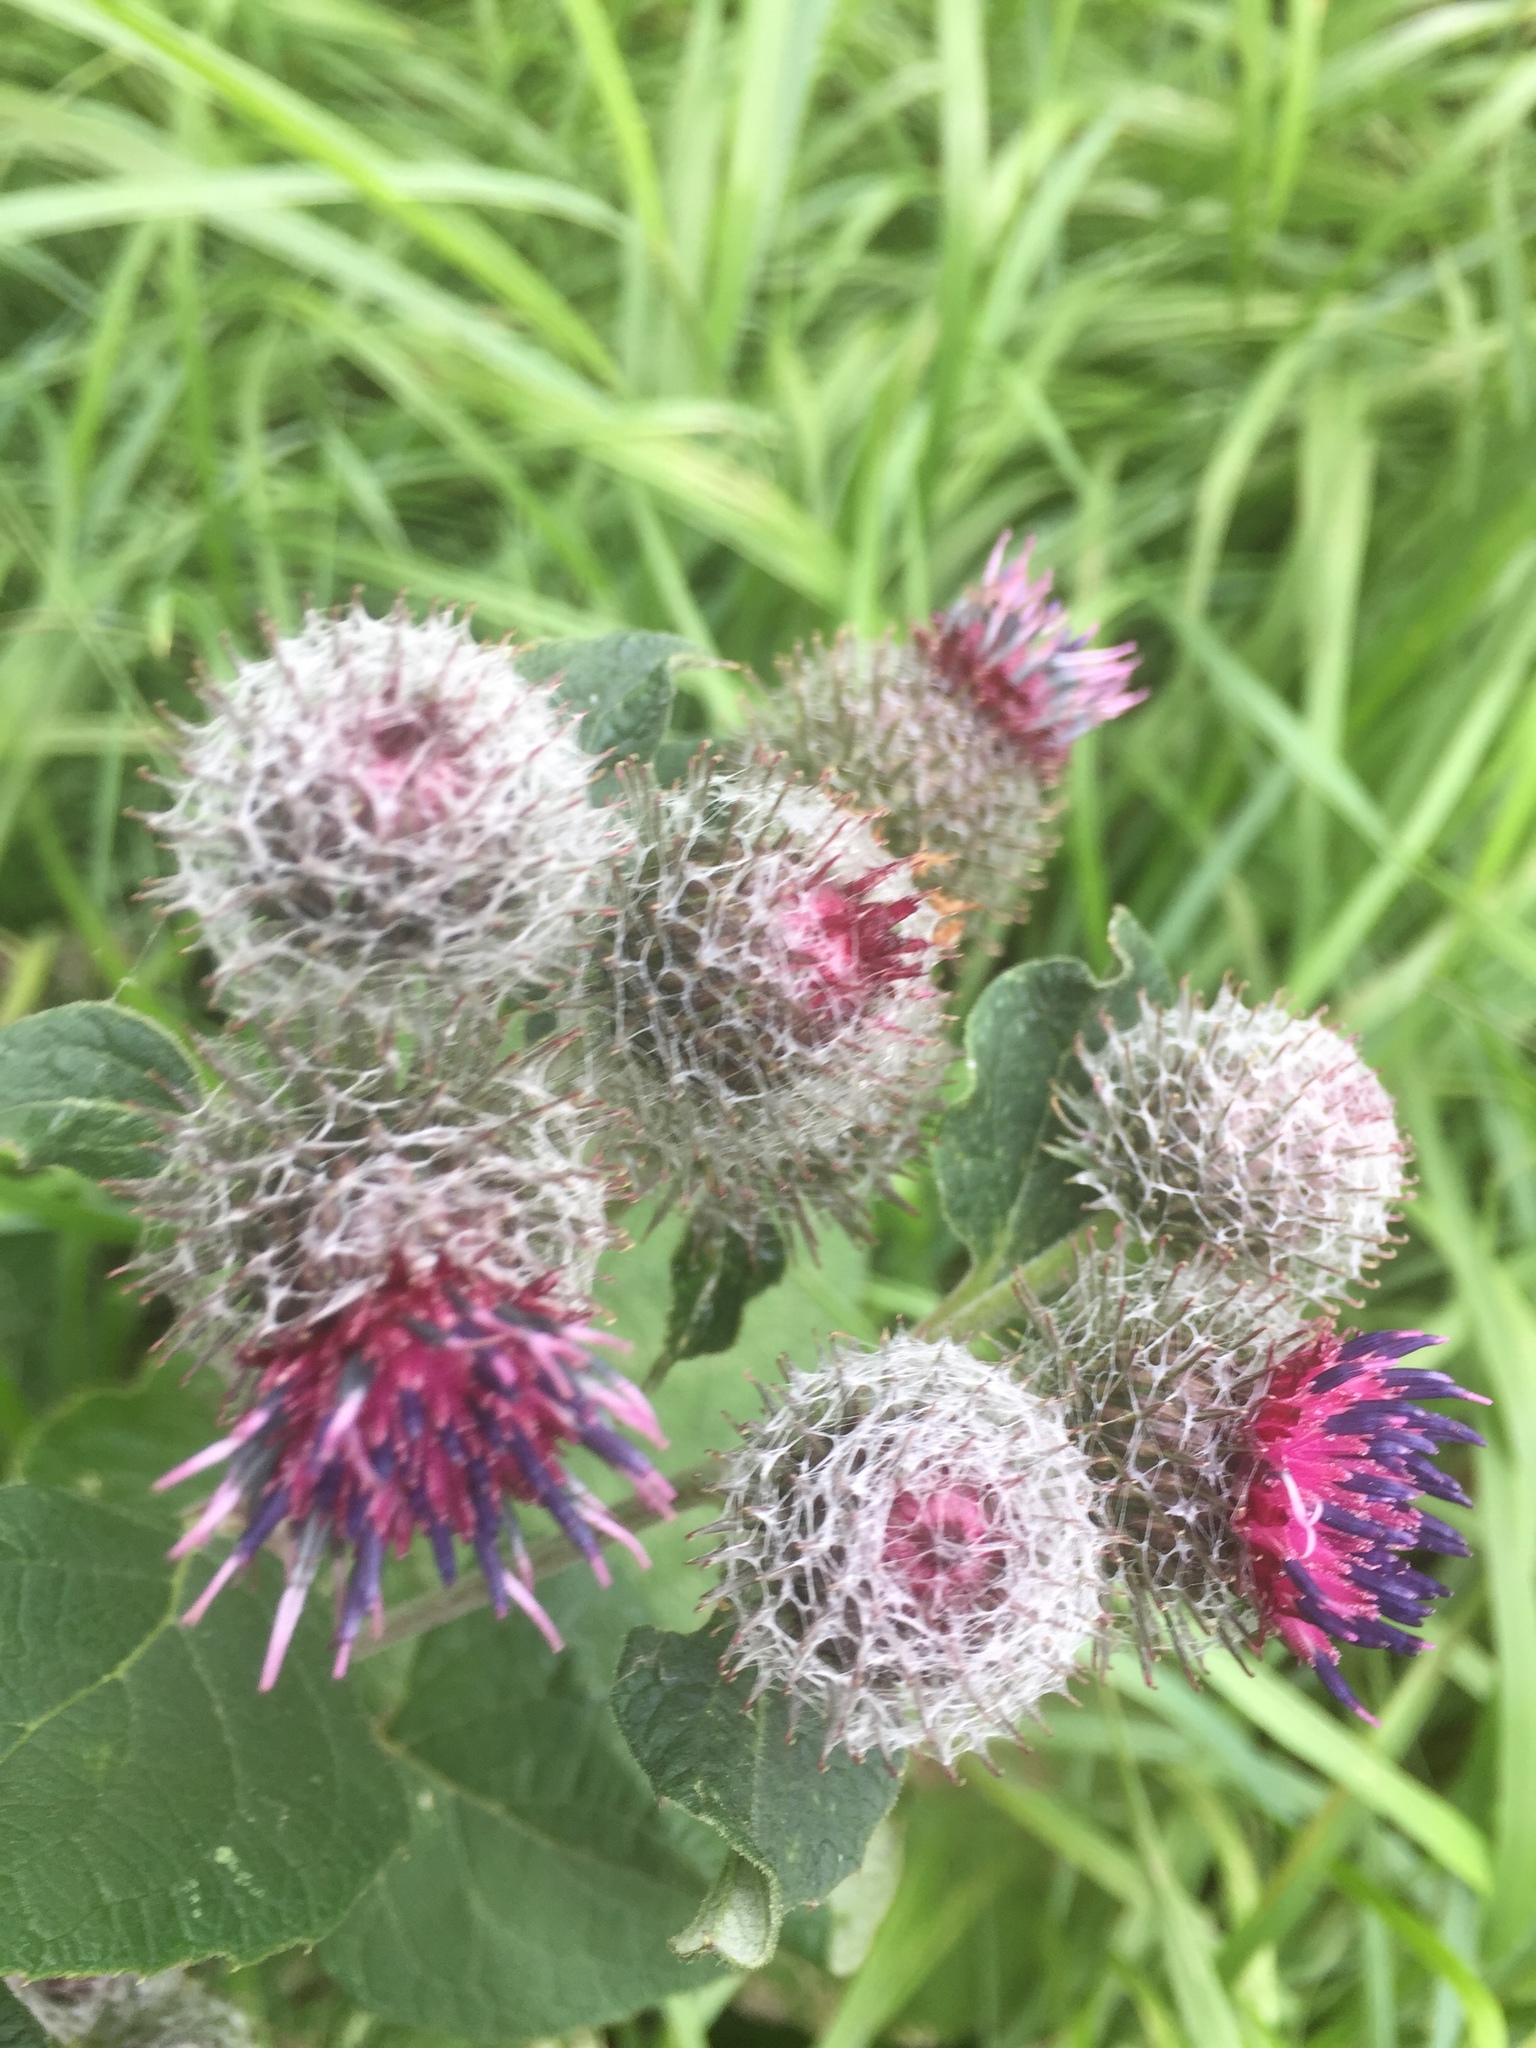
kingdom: Plantae
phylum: Tracheophyta
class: Magnoliopsida
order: Asterales
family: Asteraceae
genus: Arctium
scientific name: Arctium tomentosum
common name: Woolly burdock
